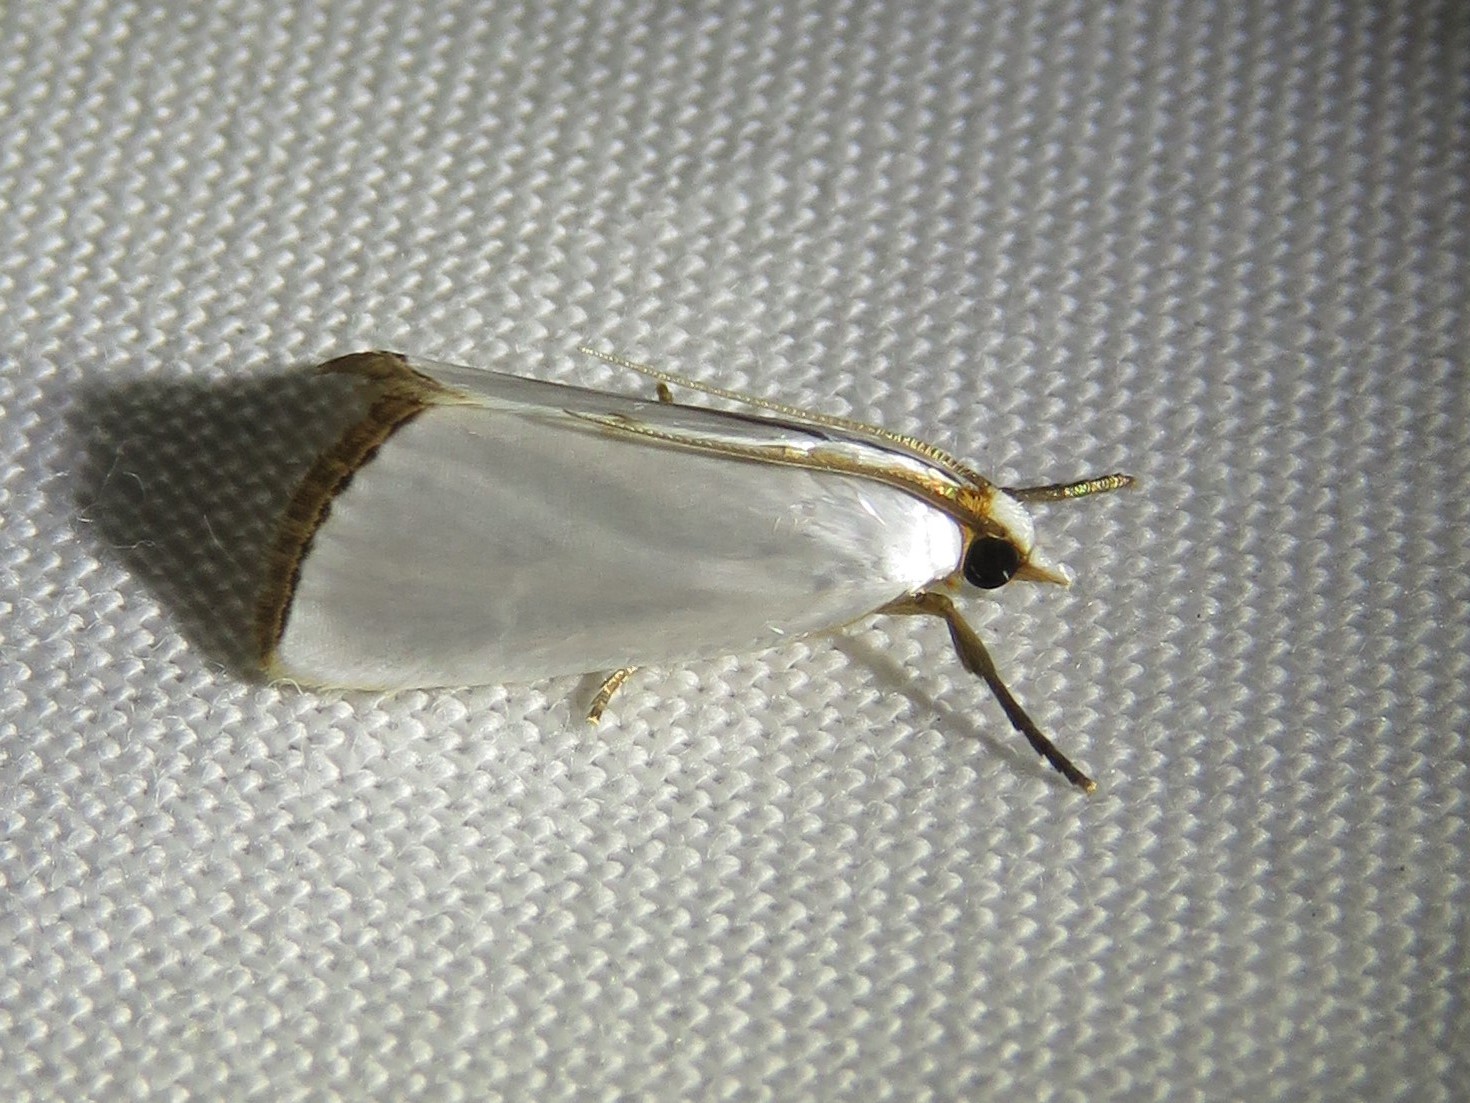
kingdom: Animalia
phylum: Arthropoda
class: Insecta
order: Lepidoptera
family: Crambidae
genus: Argyria
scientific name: Argyria nivalis
